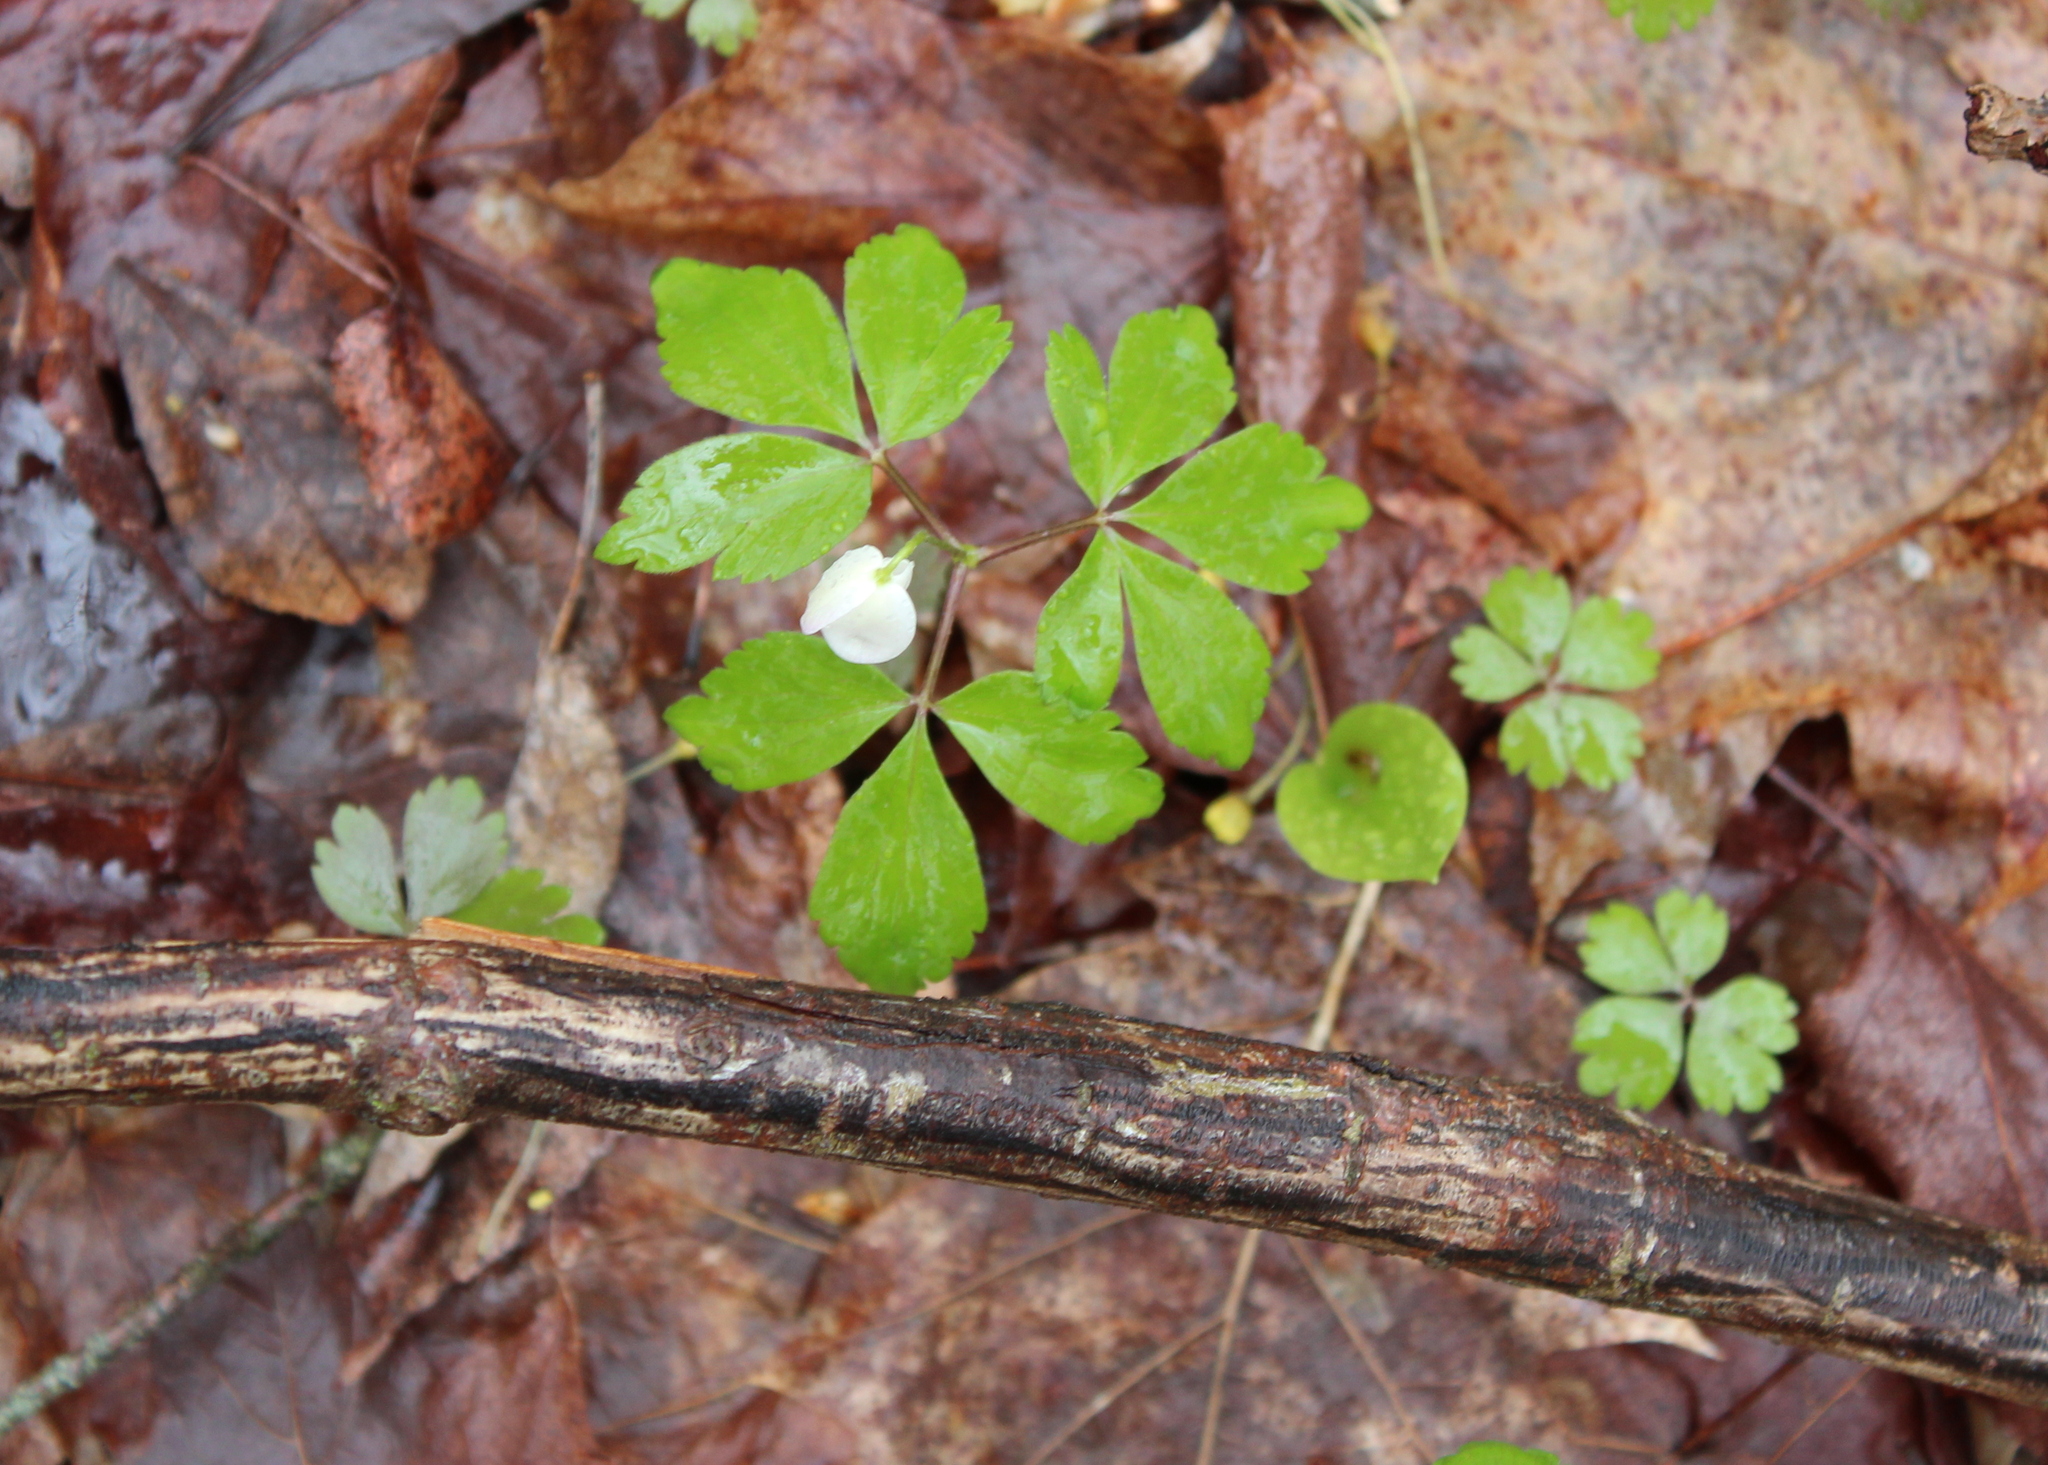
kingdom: Plantae
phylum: Tracheophyta
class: Magnoliopsida
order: Ranunculales
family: Ranunculaceae
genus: Anemone
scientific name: Anemone quinquefolia
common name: Wood anemone
